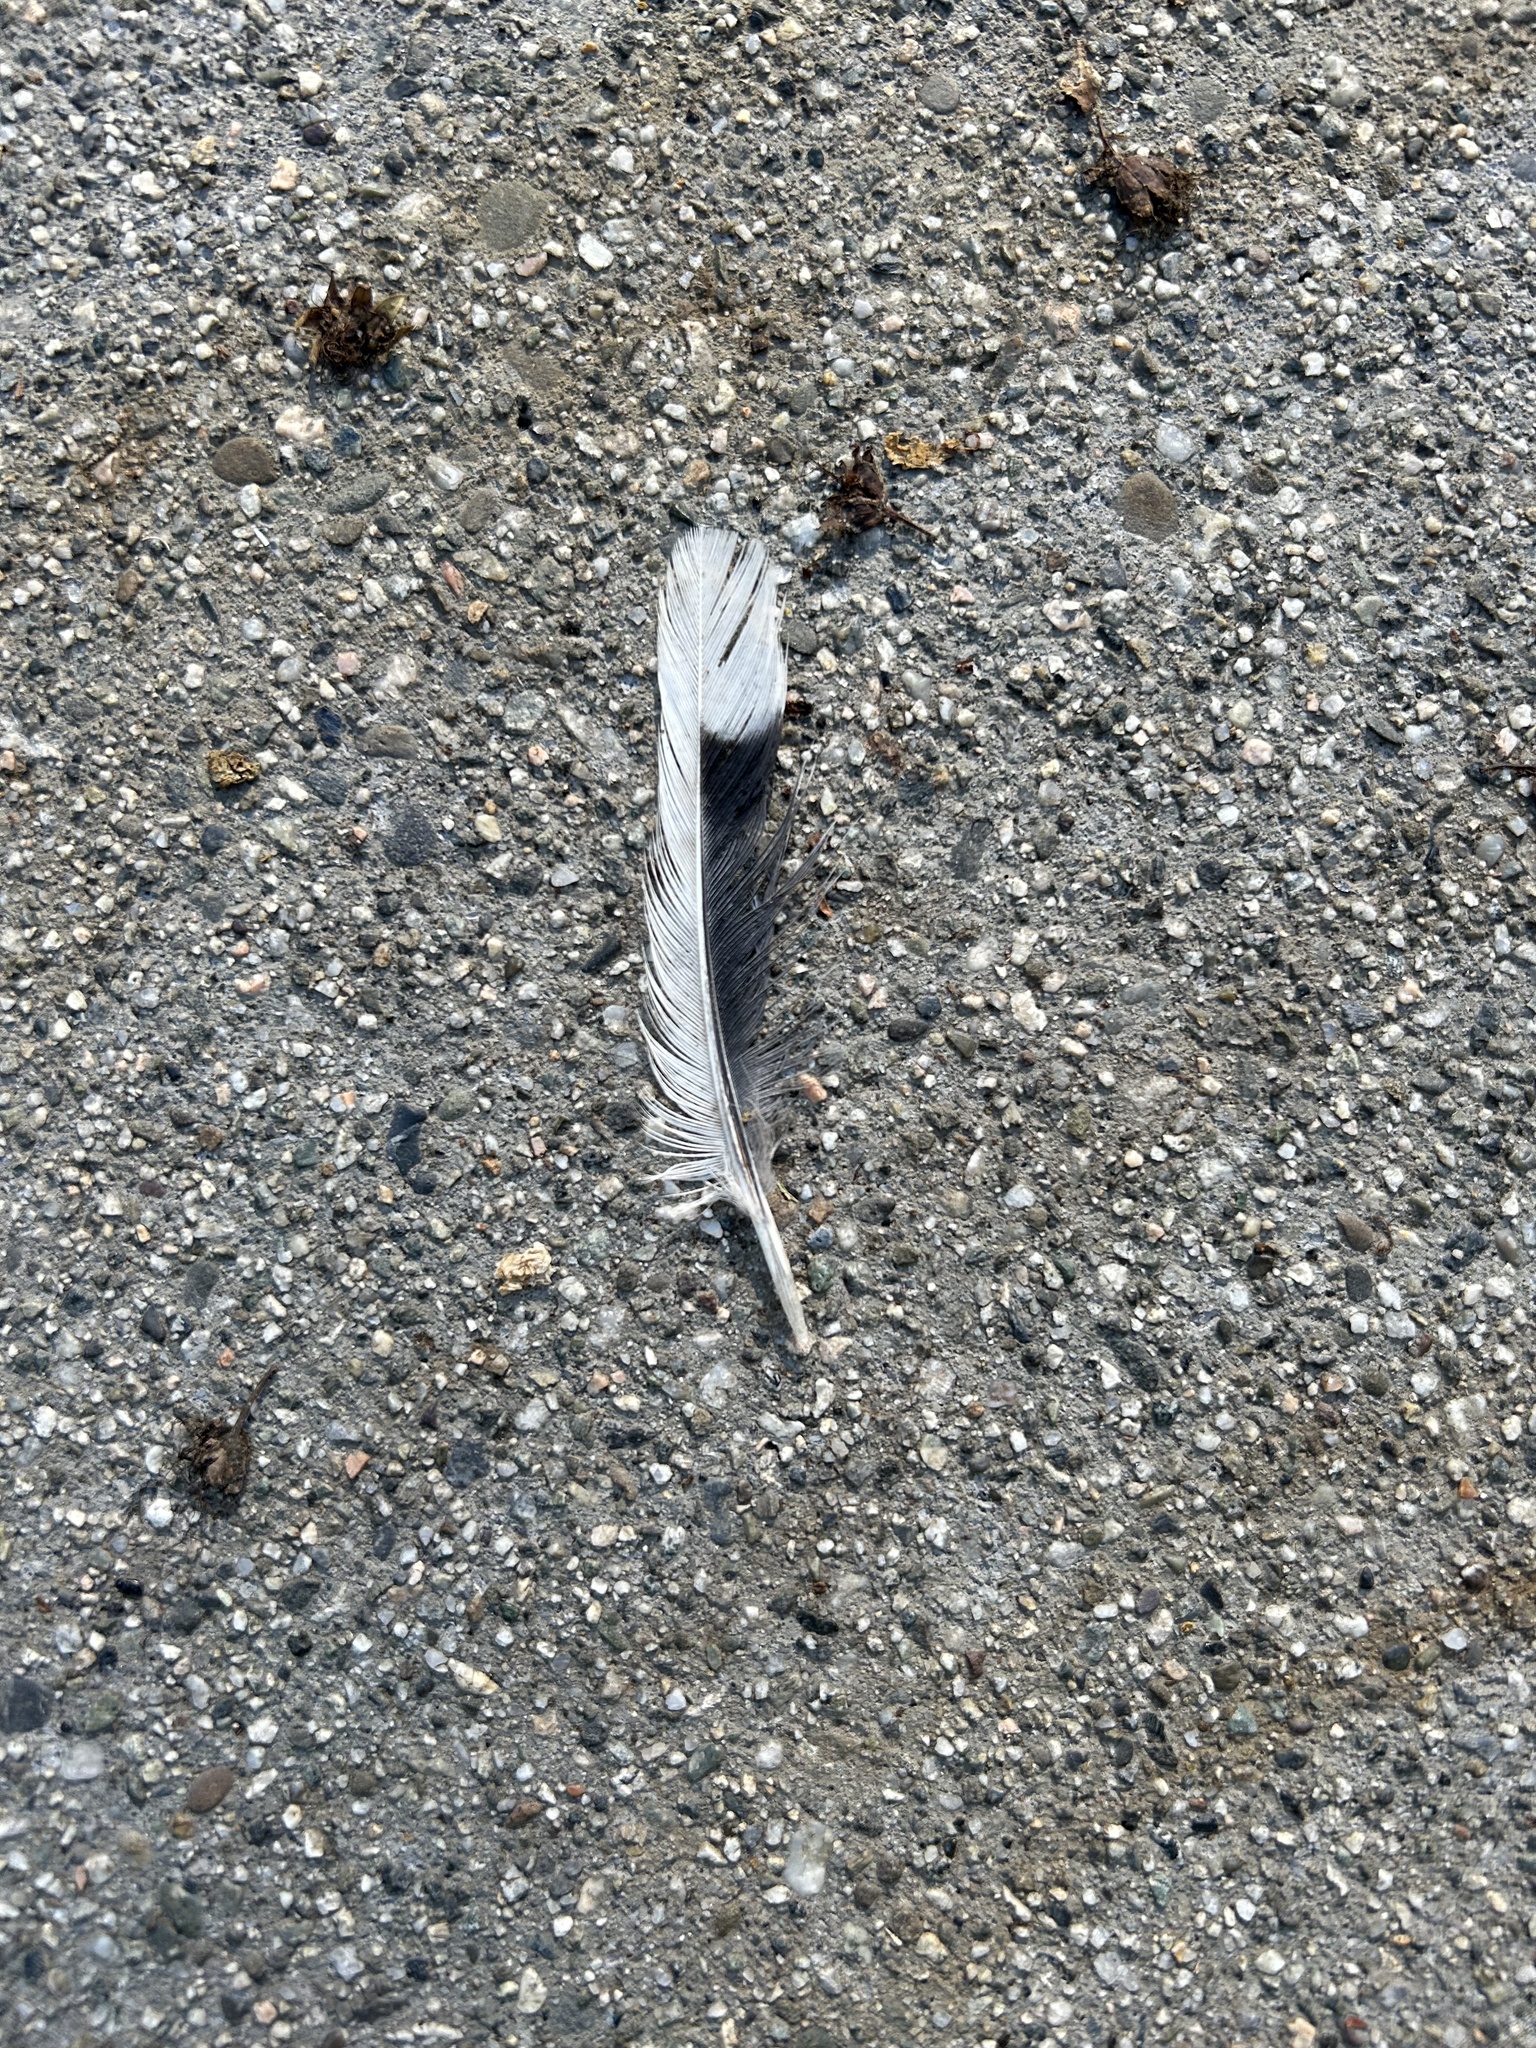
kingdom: Animalia
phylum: Chordata
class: Aves
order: Columbiformes
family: Columbidae
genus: Zenaida
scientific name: Zenaida macroura
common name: Mourning dove
